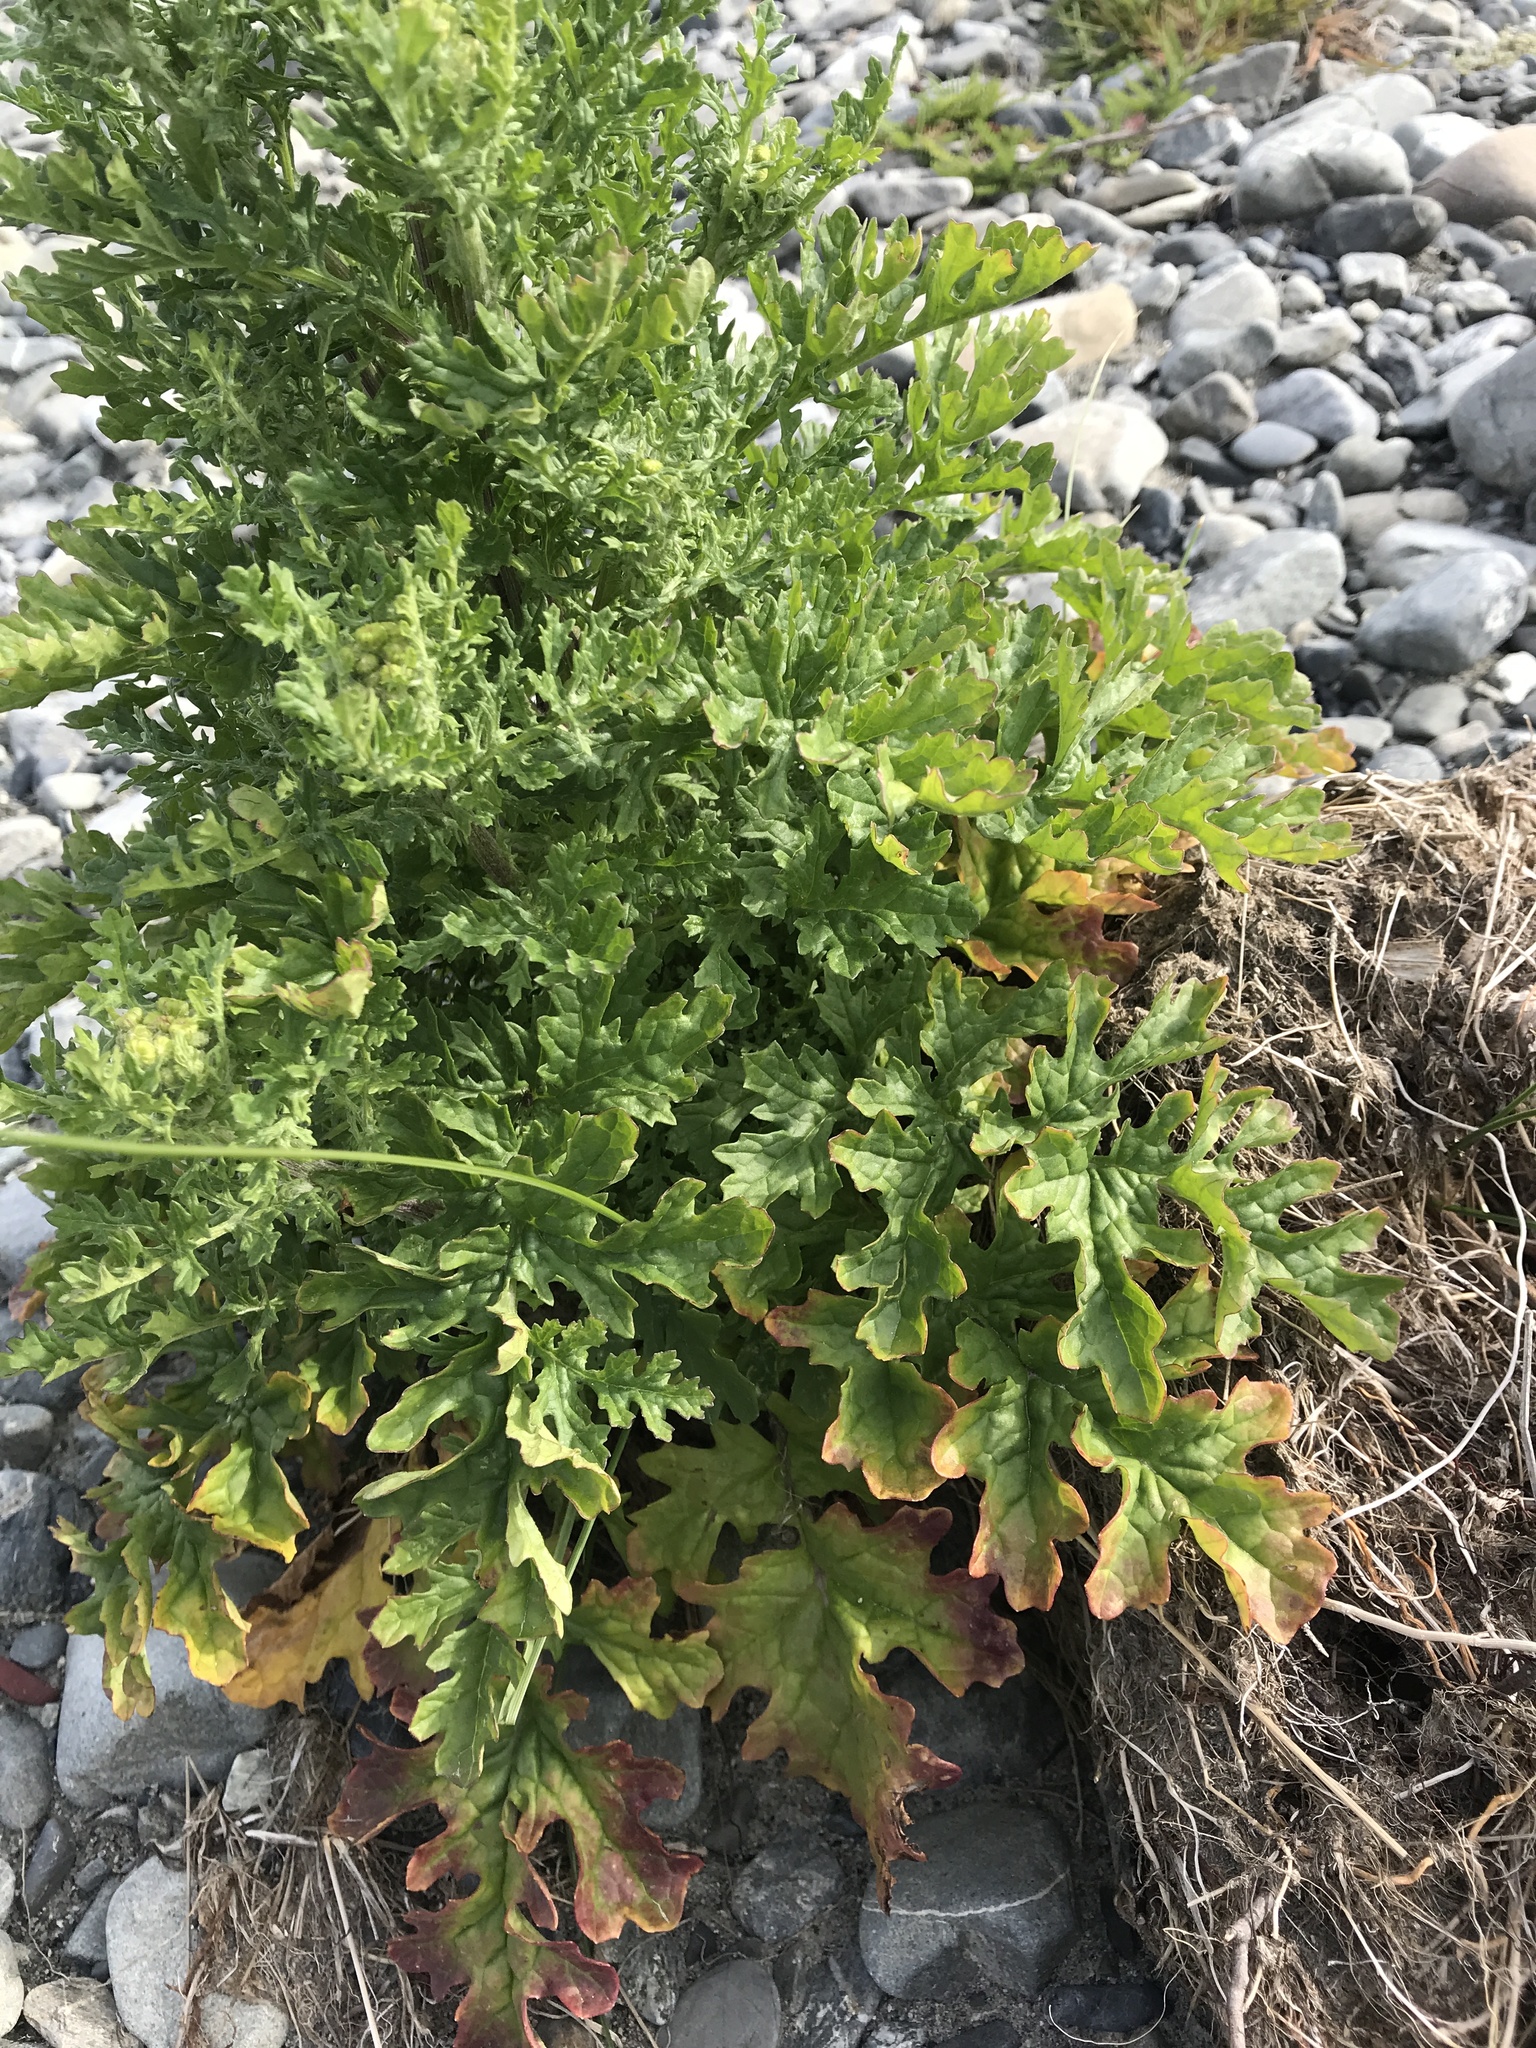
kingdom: Plantae
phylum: Tracheophyta
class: Magnoliopsida
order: Asterales
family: Asteraceae
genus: Jacobaea
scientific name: Jacobaea vulgaris
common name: Stinking willie
